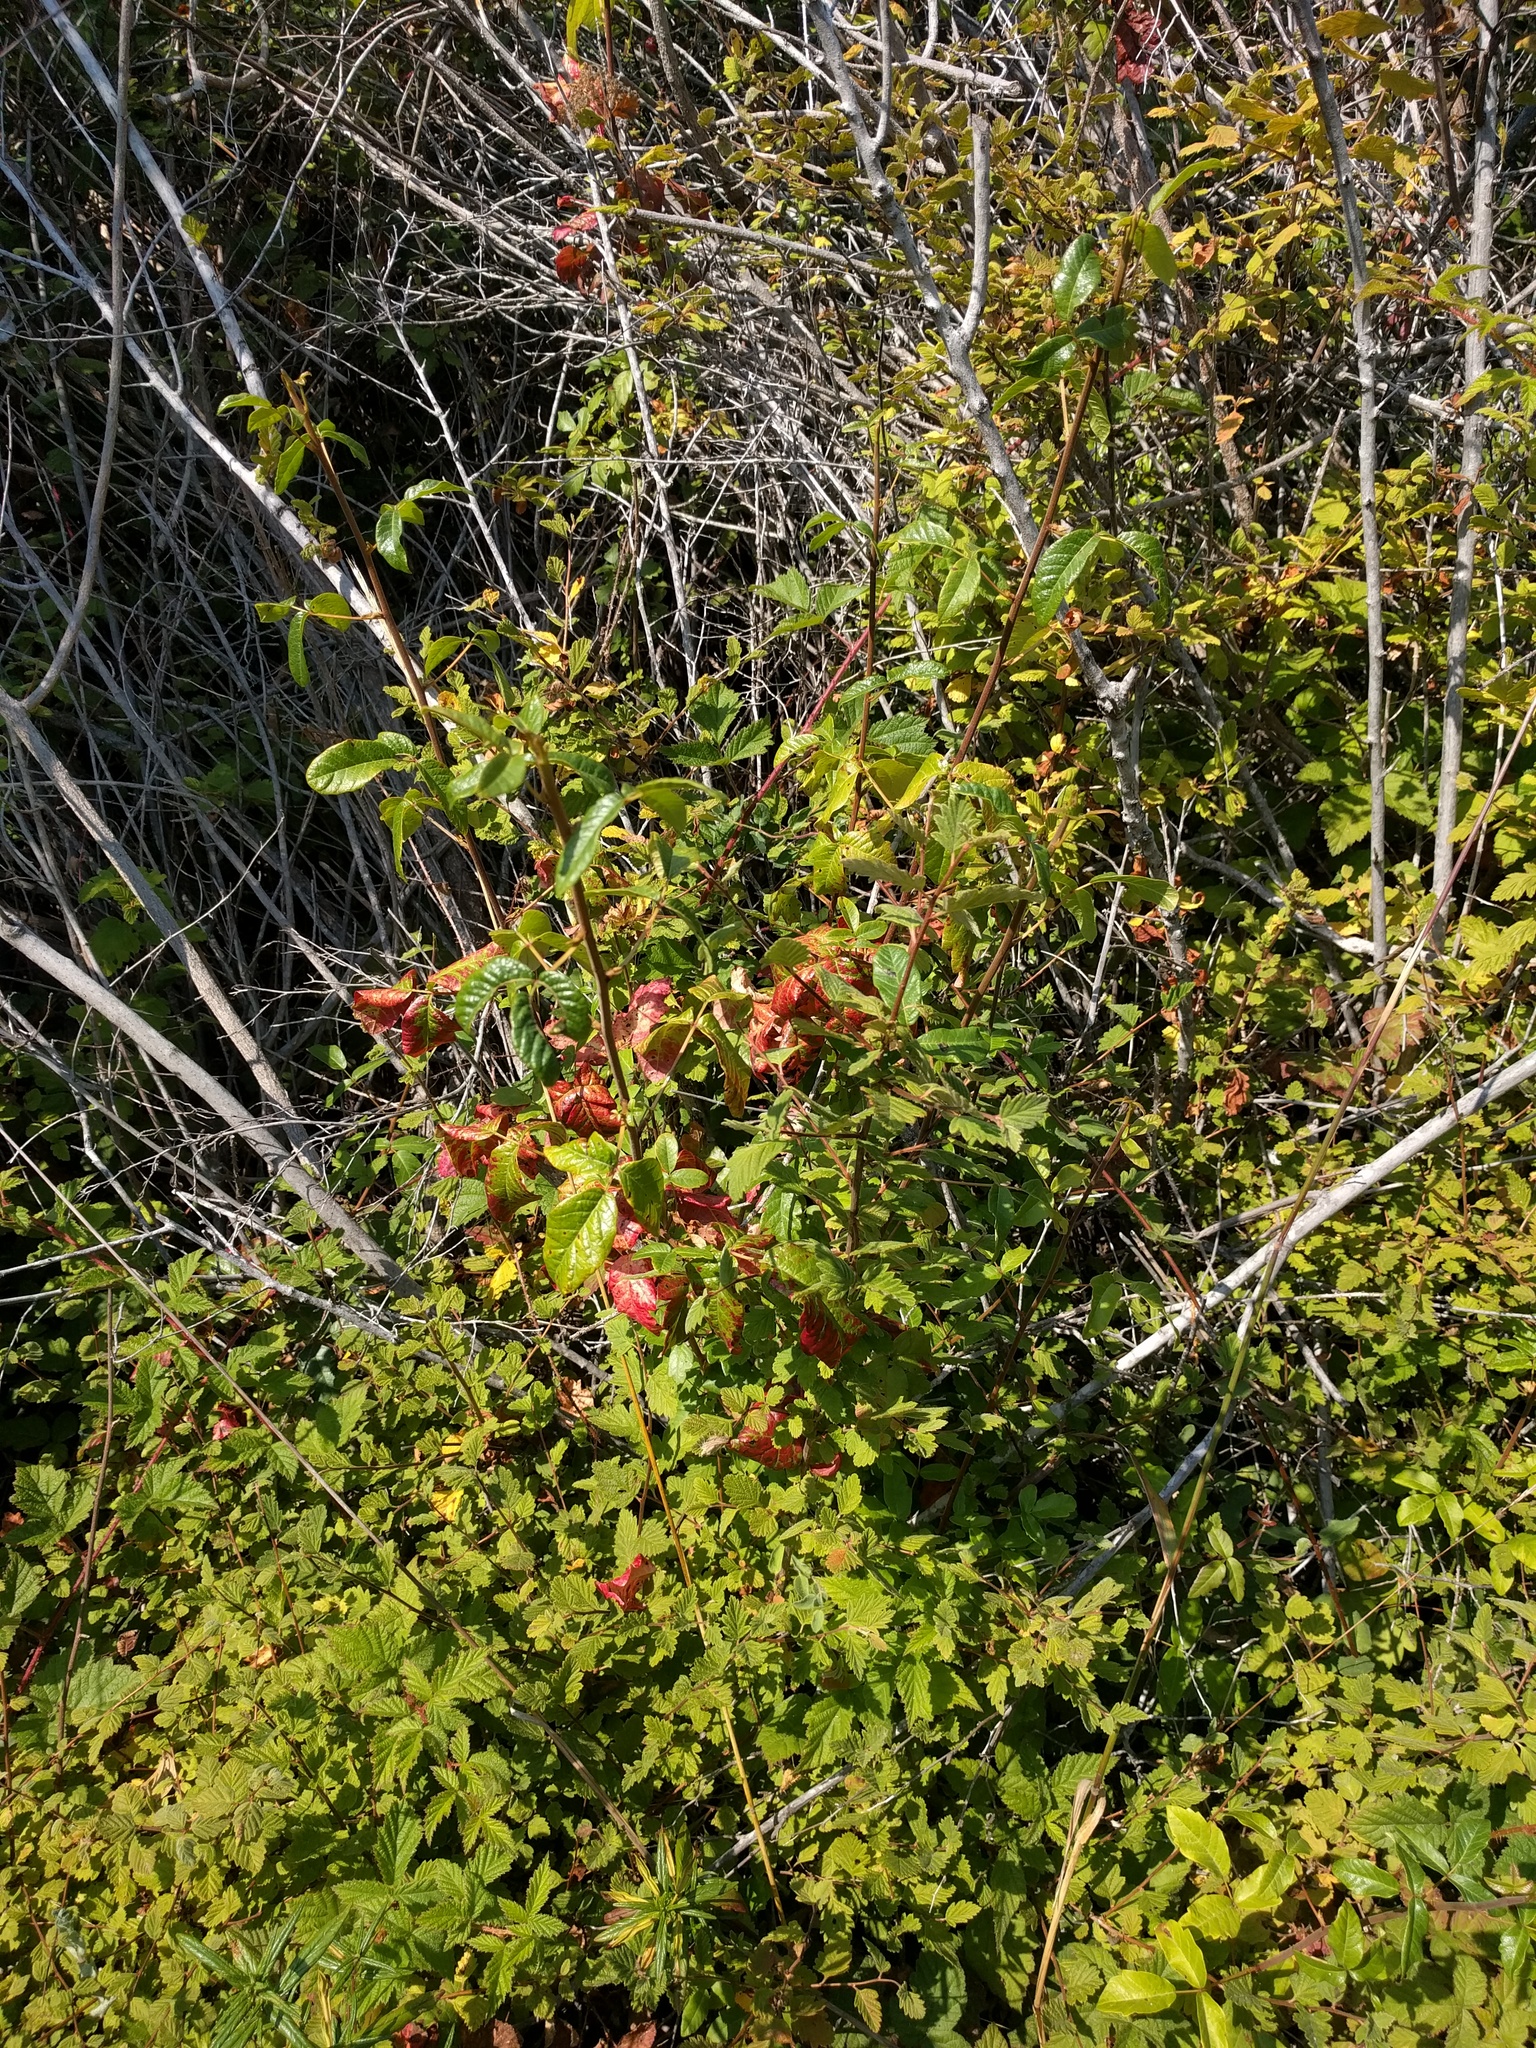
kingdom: Plantae
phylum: Tracheophyta
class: Magnoliopsida
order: Sapindales
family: Anacardiaceae
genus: Toxicodendron
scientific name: Toxicodendron diversilobum
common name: Pacific poison-oak
